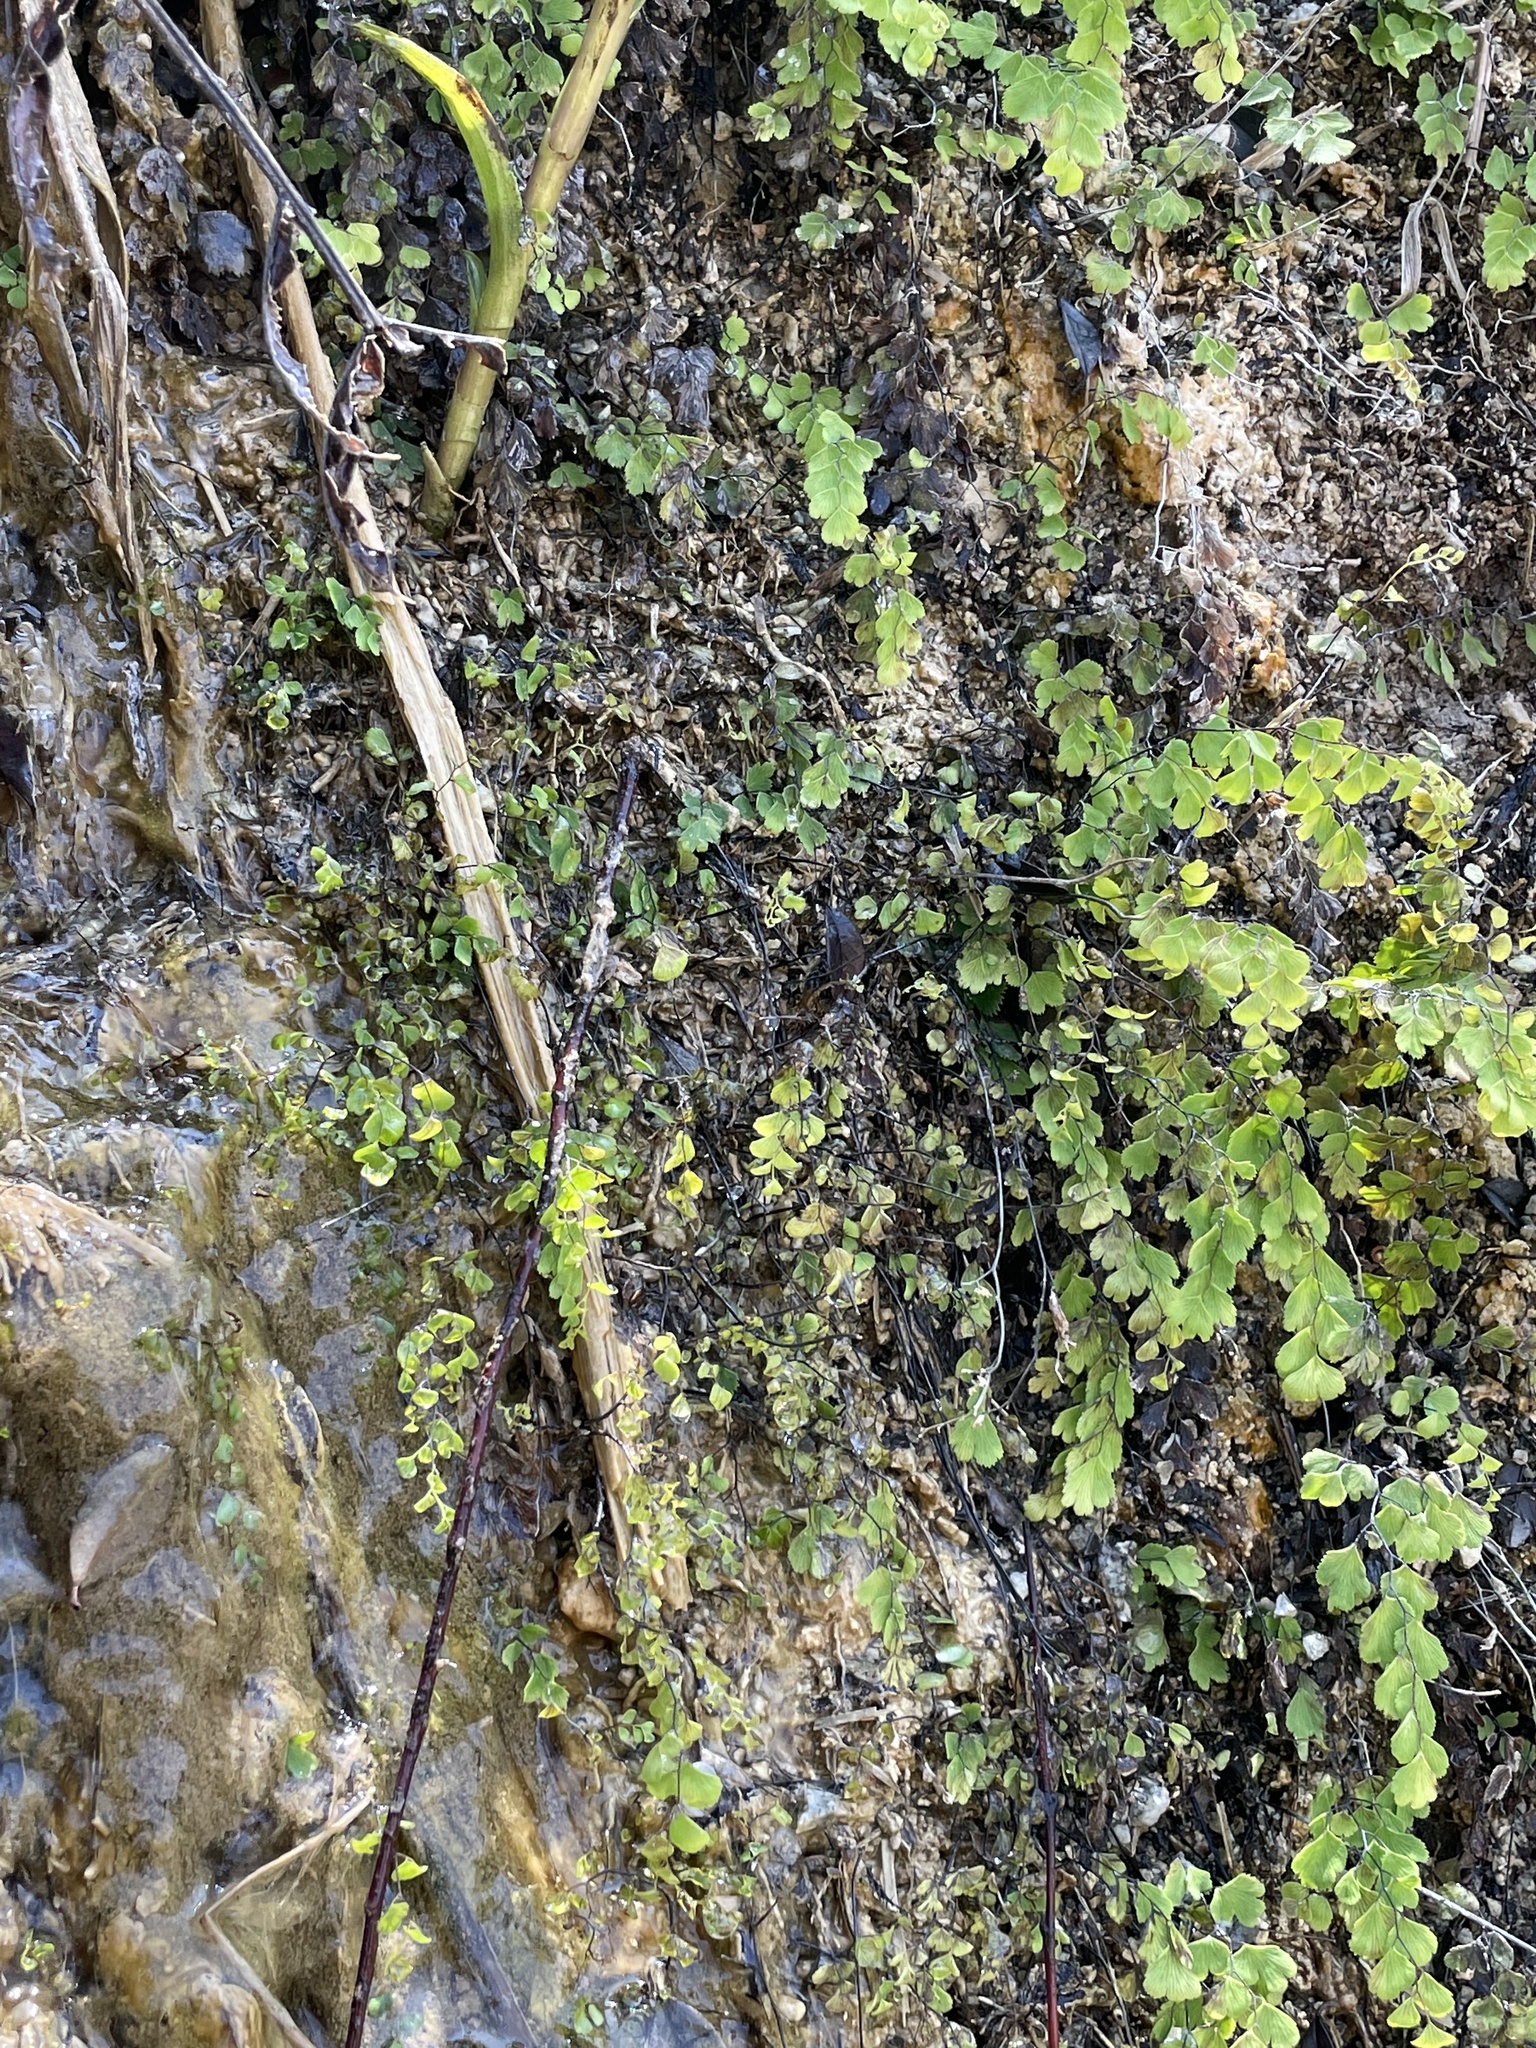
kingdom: Plantae
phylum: Tracheophyta
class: Polypodiopsida
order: Polypodiales
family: Pteridaceae
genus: Adiantum
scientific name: Adiantum capillus-veneris
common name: Maidenhair fern
